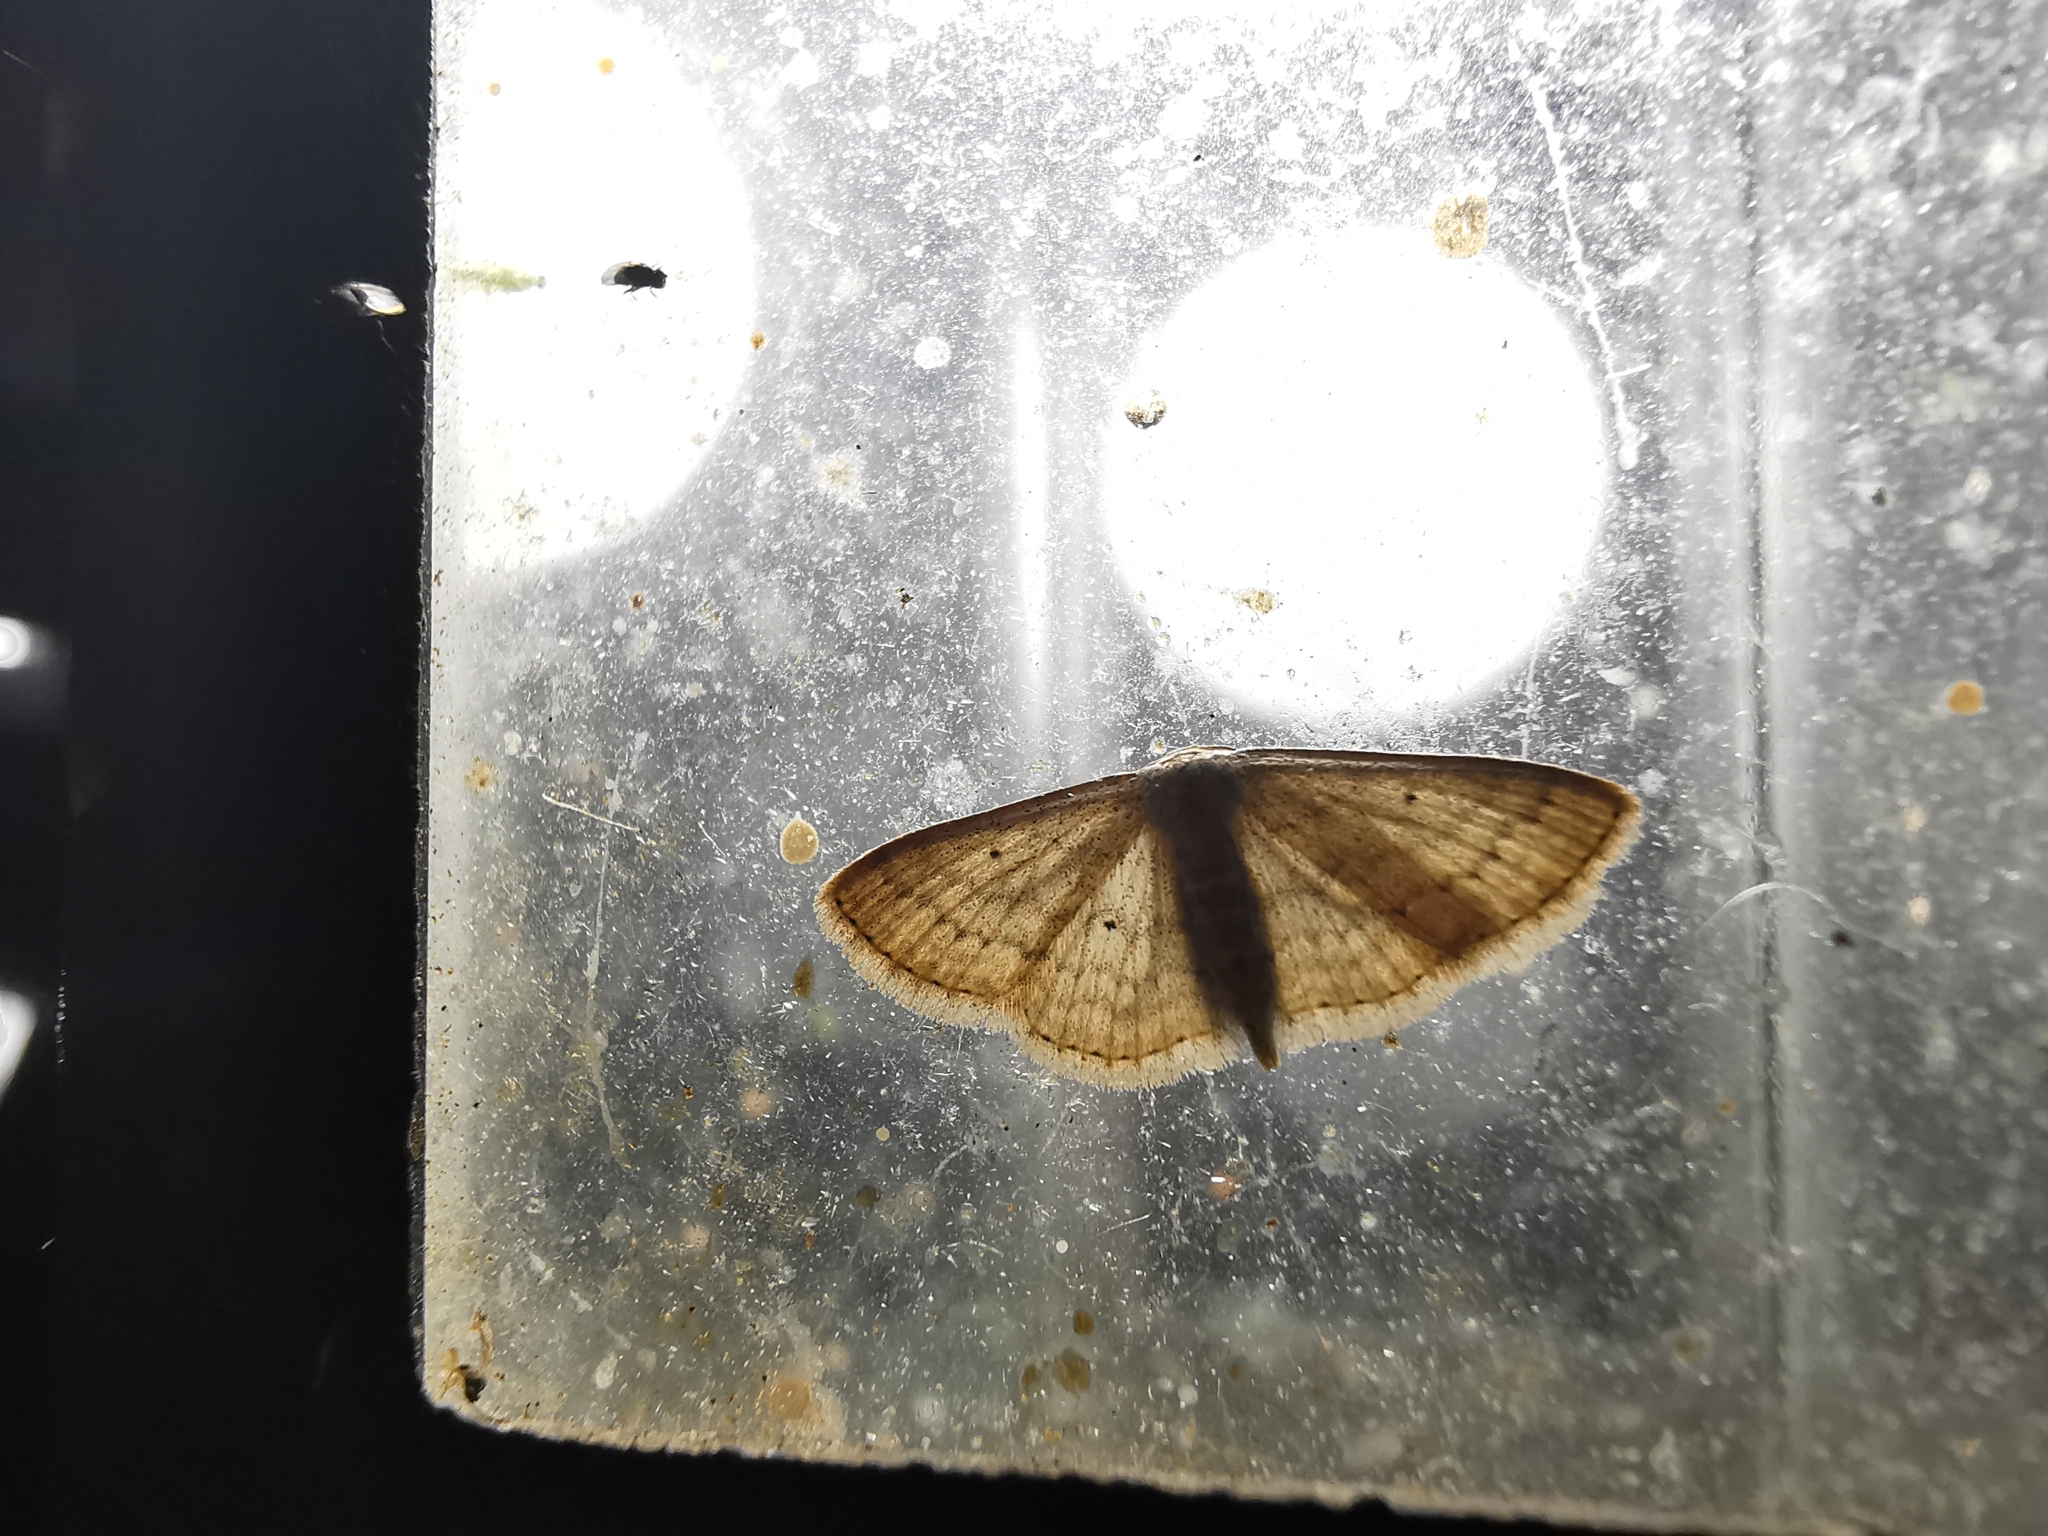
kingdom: Animalia
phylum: Arthropoda
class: Insecta
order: Lepidoptera
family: Geometridae
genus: Scopula
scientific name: Scopula minorata
